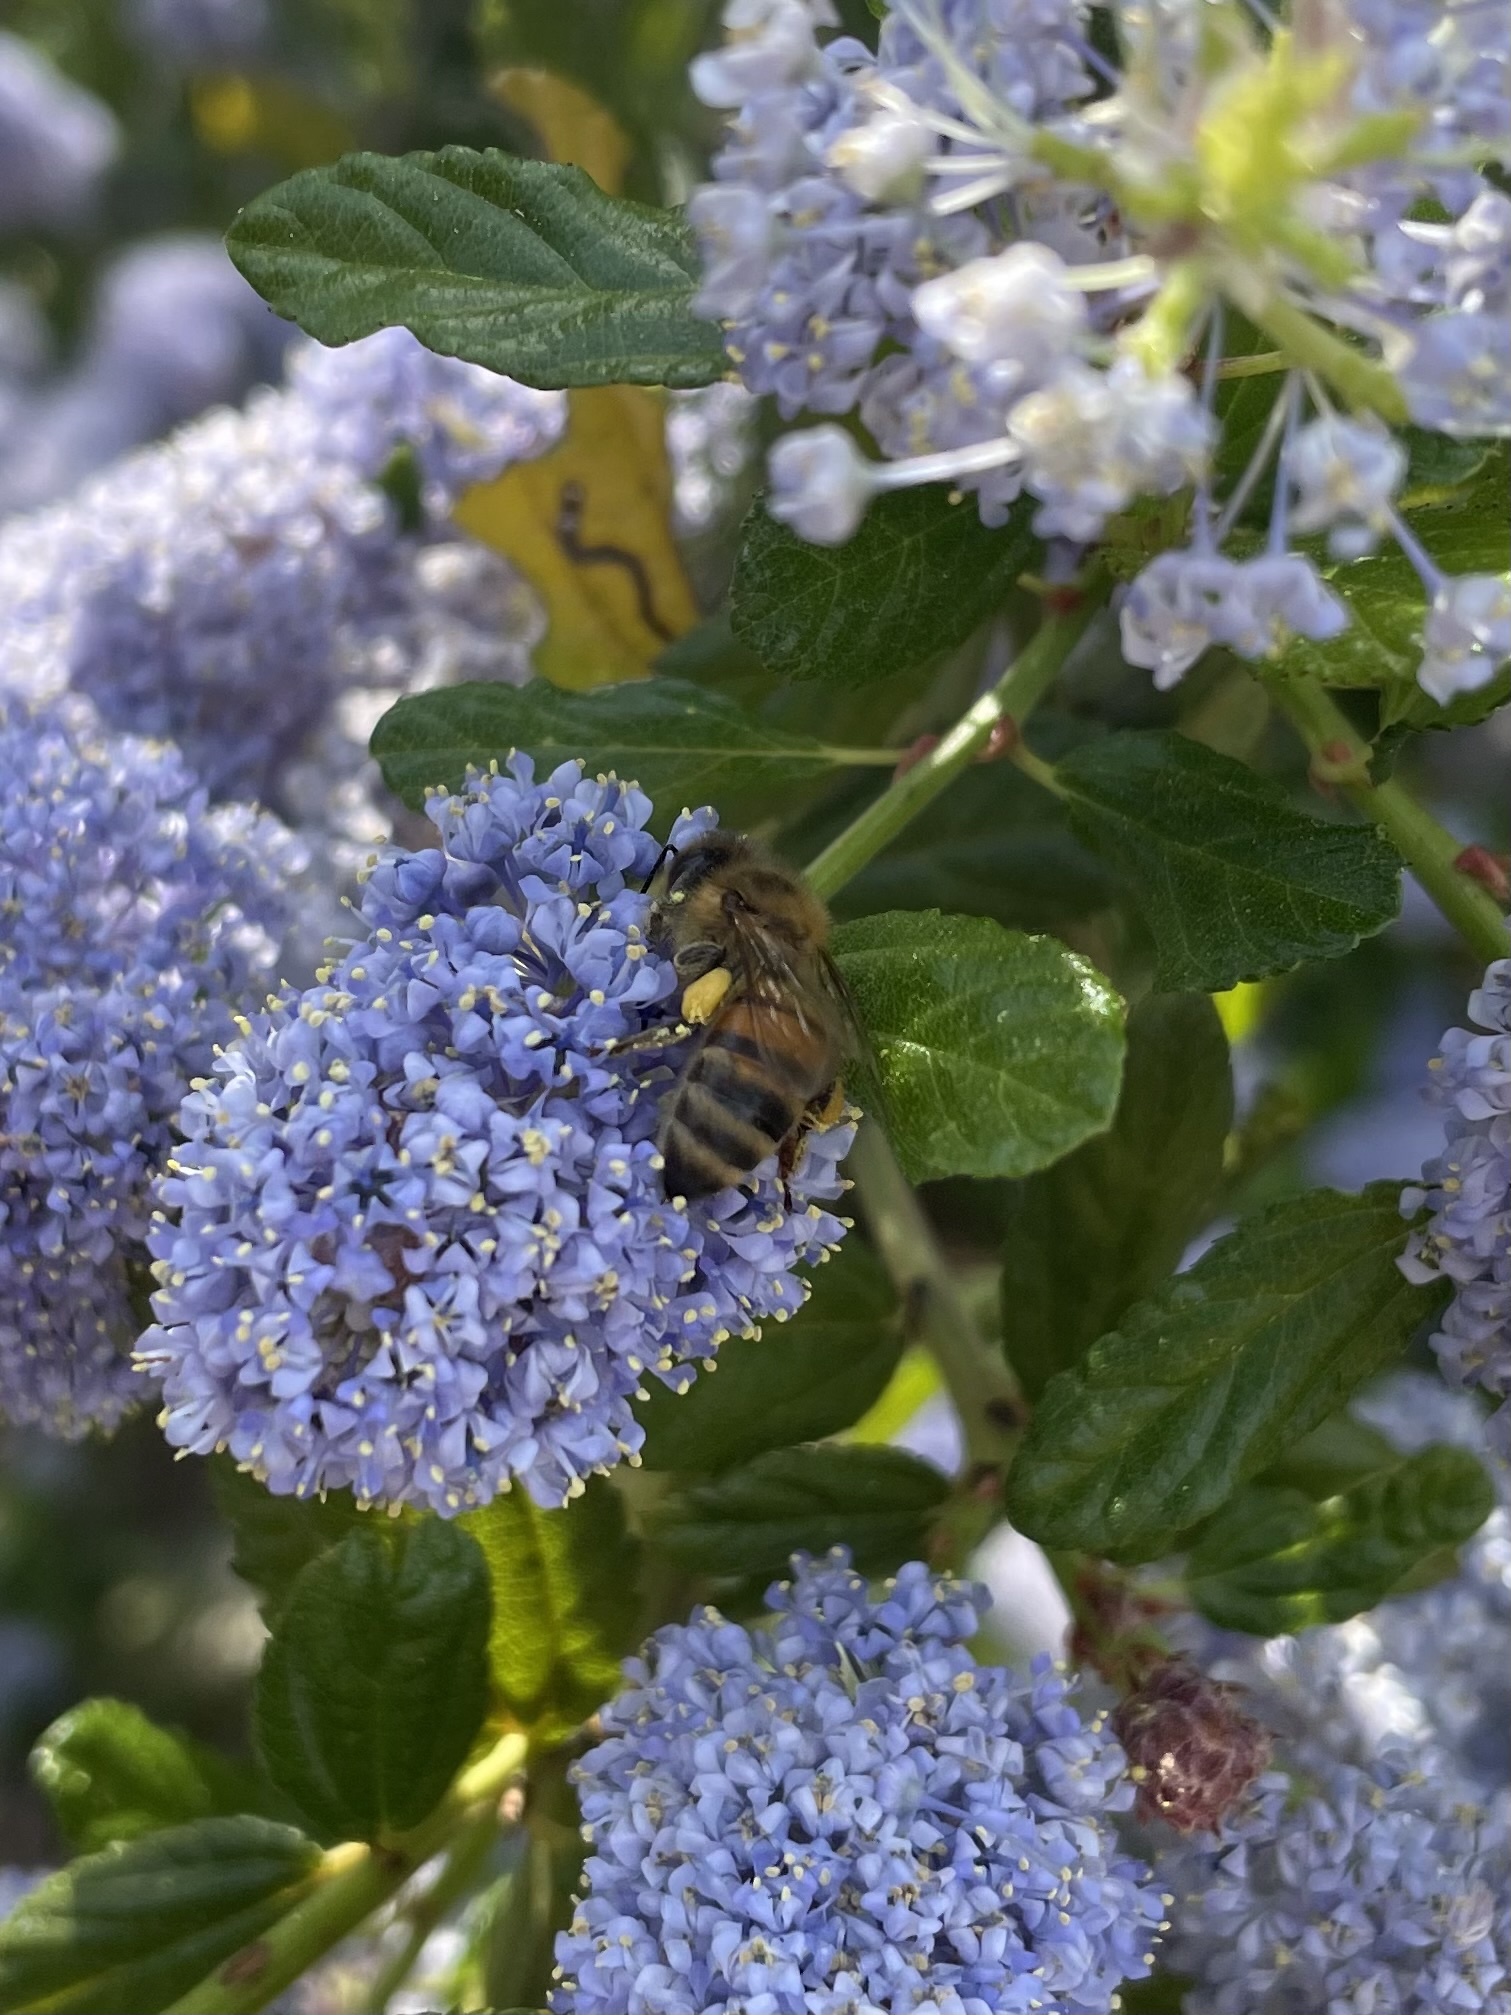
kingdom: Animalia
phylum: Arthropoda
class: Insecta
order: Hymenoptera
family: Apidae
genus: Apis
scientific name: Apis mellifera
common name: Honey bee
